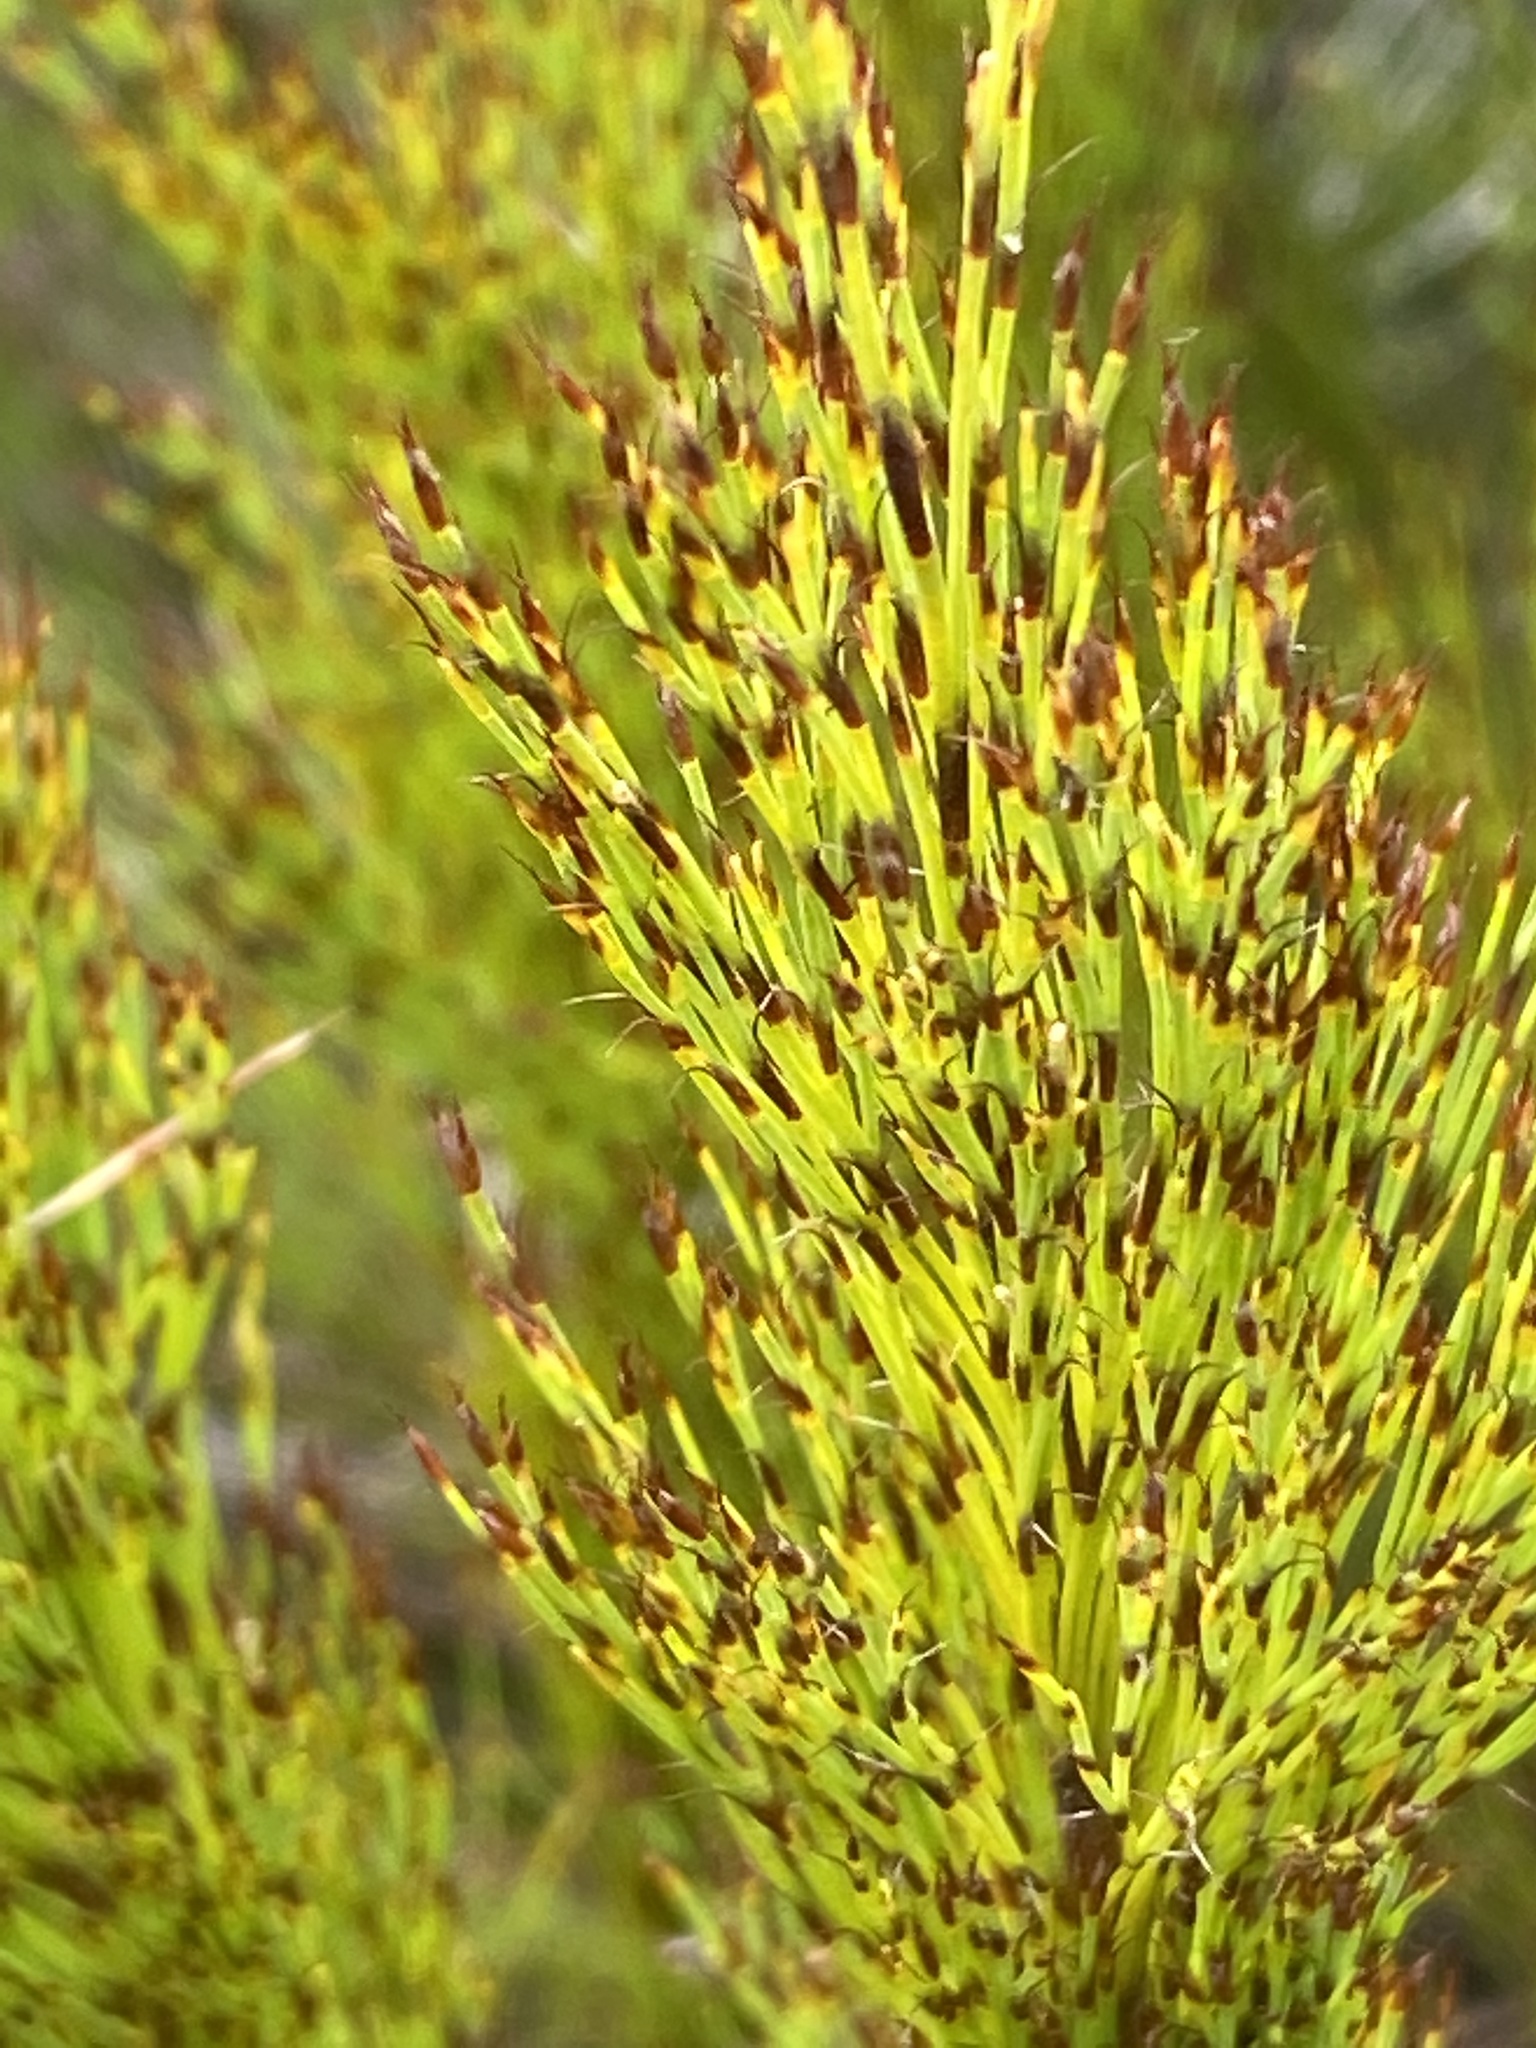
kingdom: Plantae
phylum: Tracheophyta
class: Liliopsida
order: Poales
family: Restionaceae
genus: Restio
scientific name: Restio leptoclados
